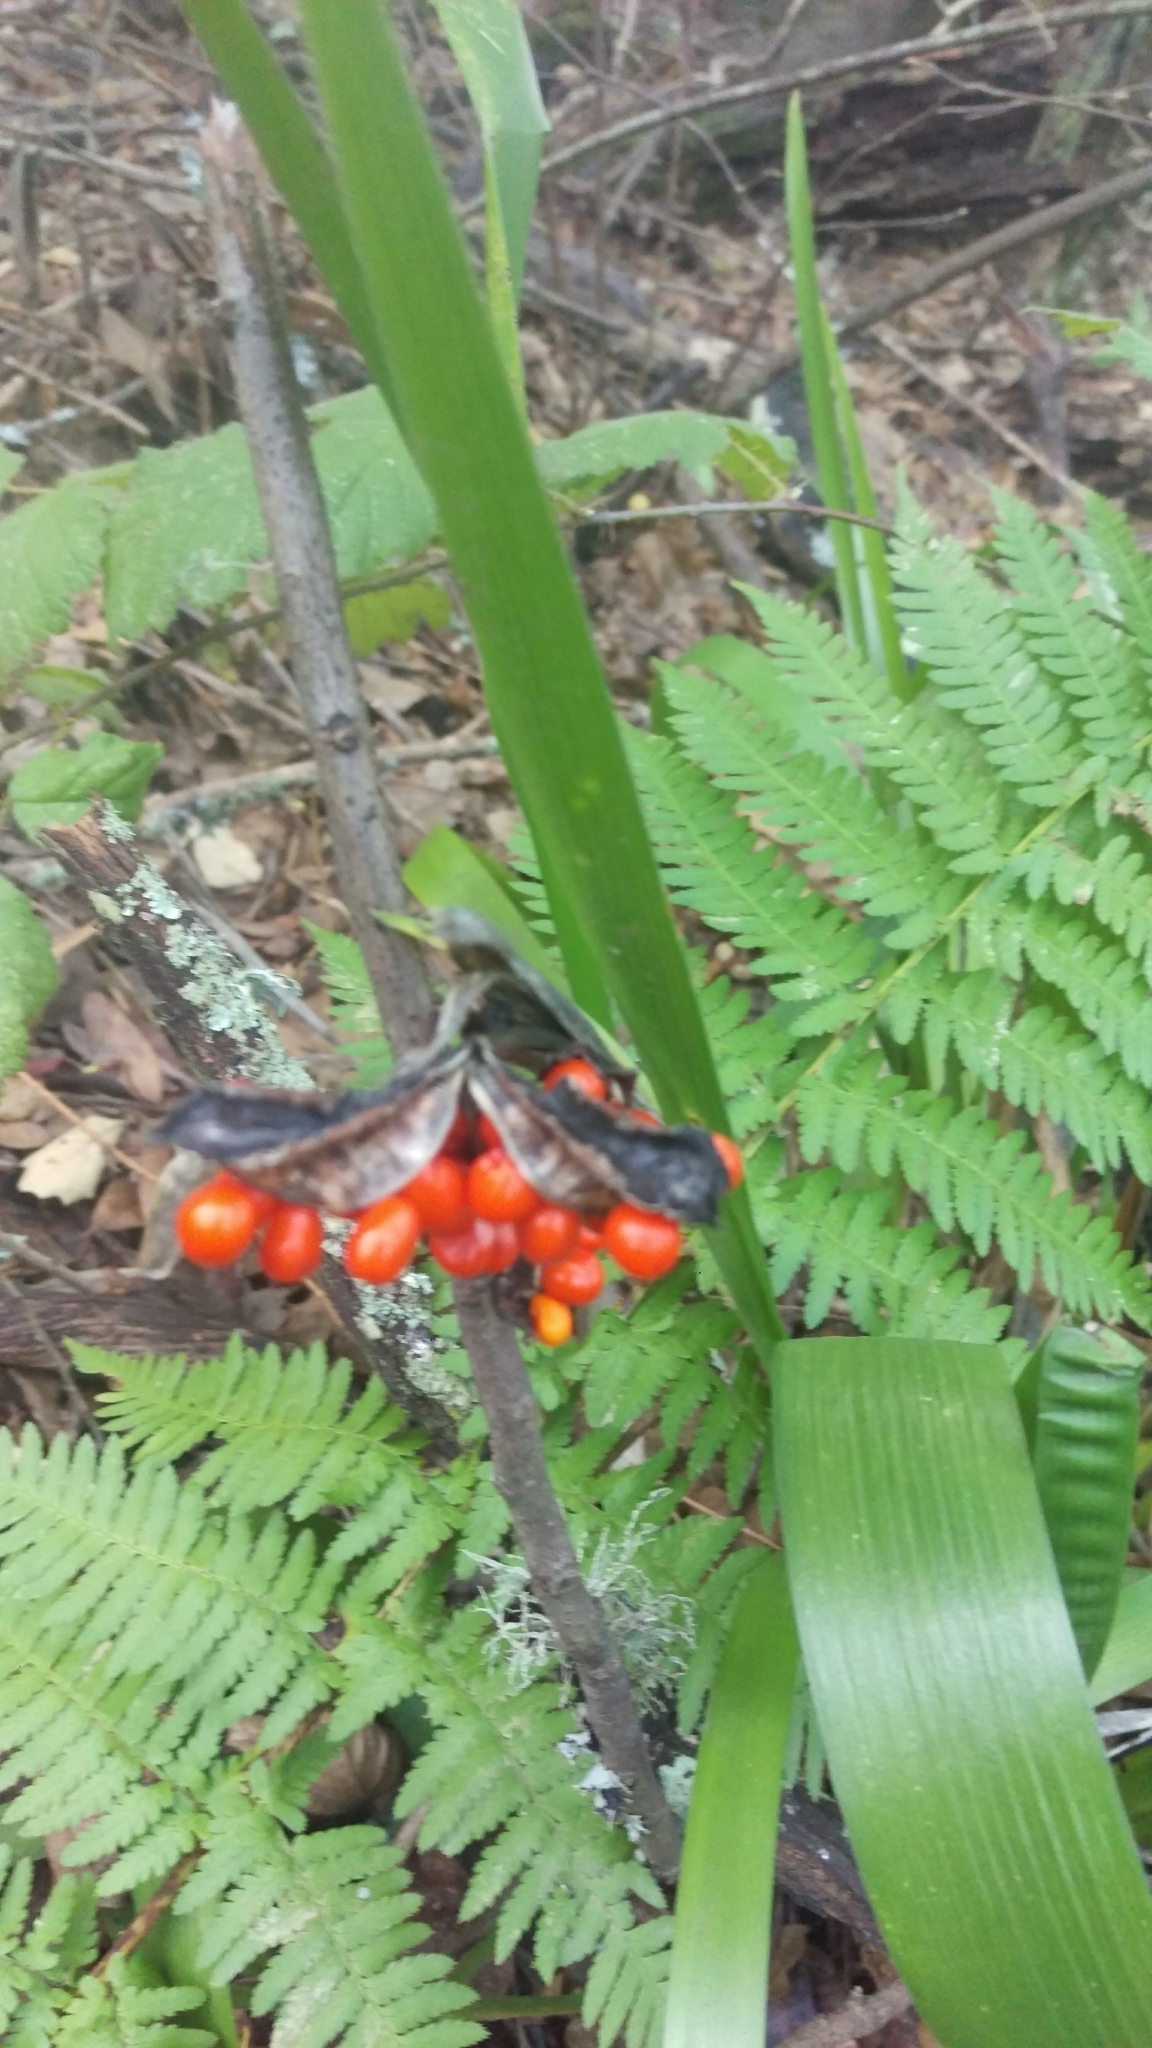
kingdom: Plantae
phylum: Tracheophyta
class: Liliopsida
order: Asparagales
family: Iridaceae
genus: Iris
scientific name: Iris foetidissima
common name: Stinking iris
